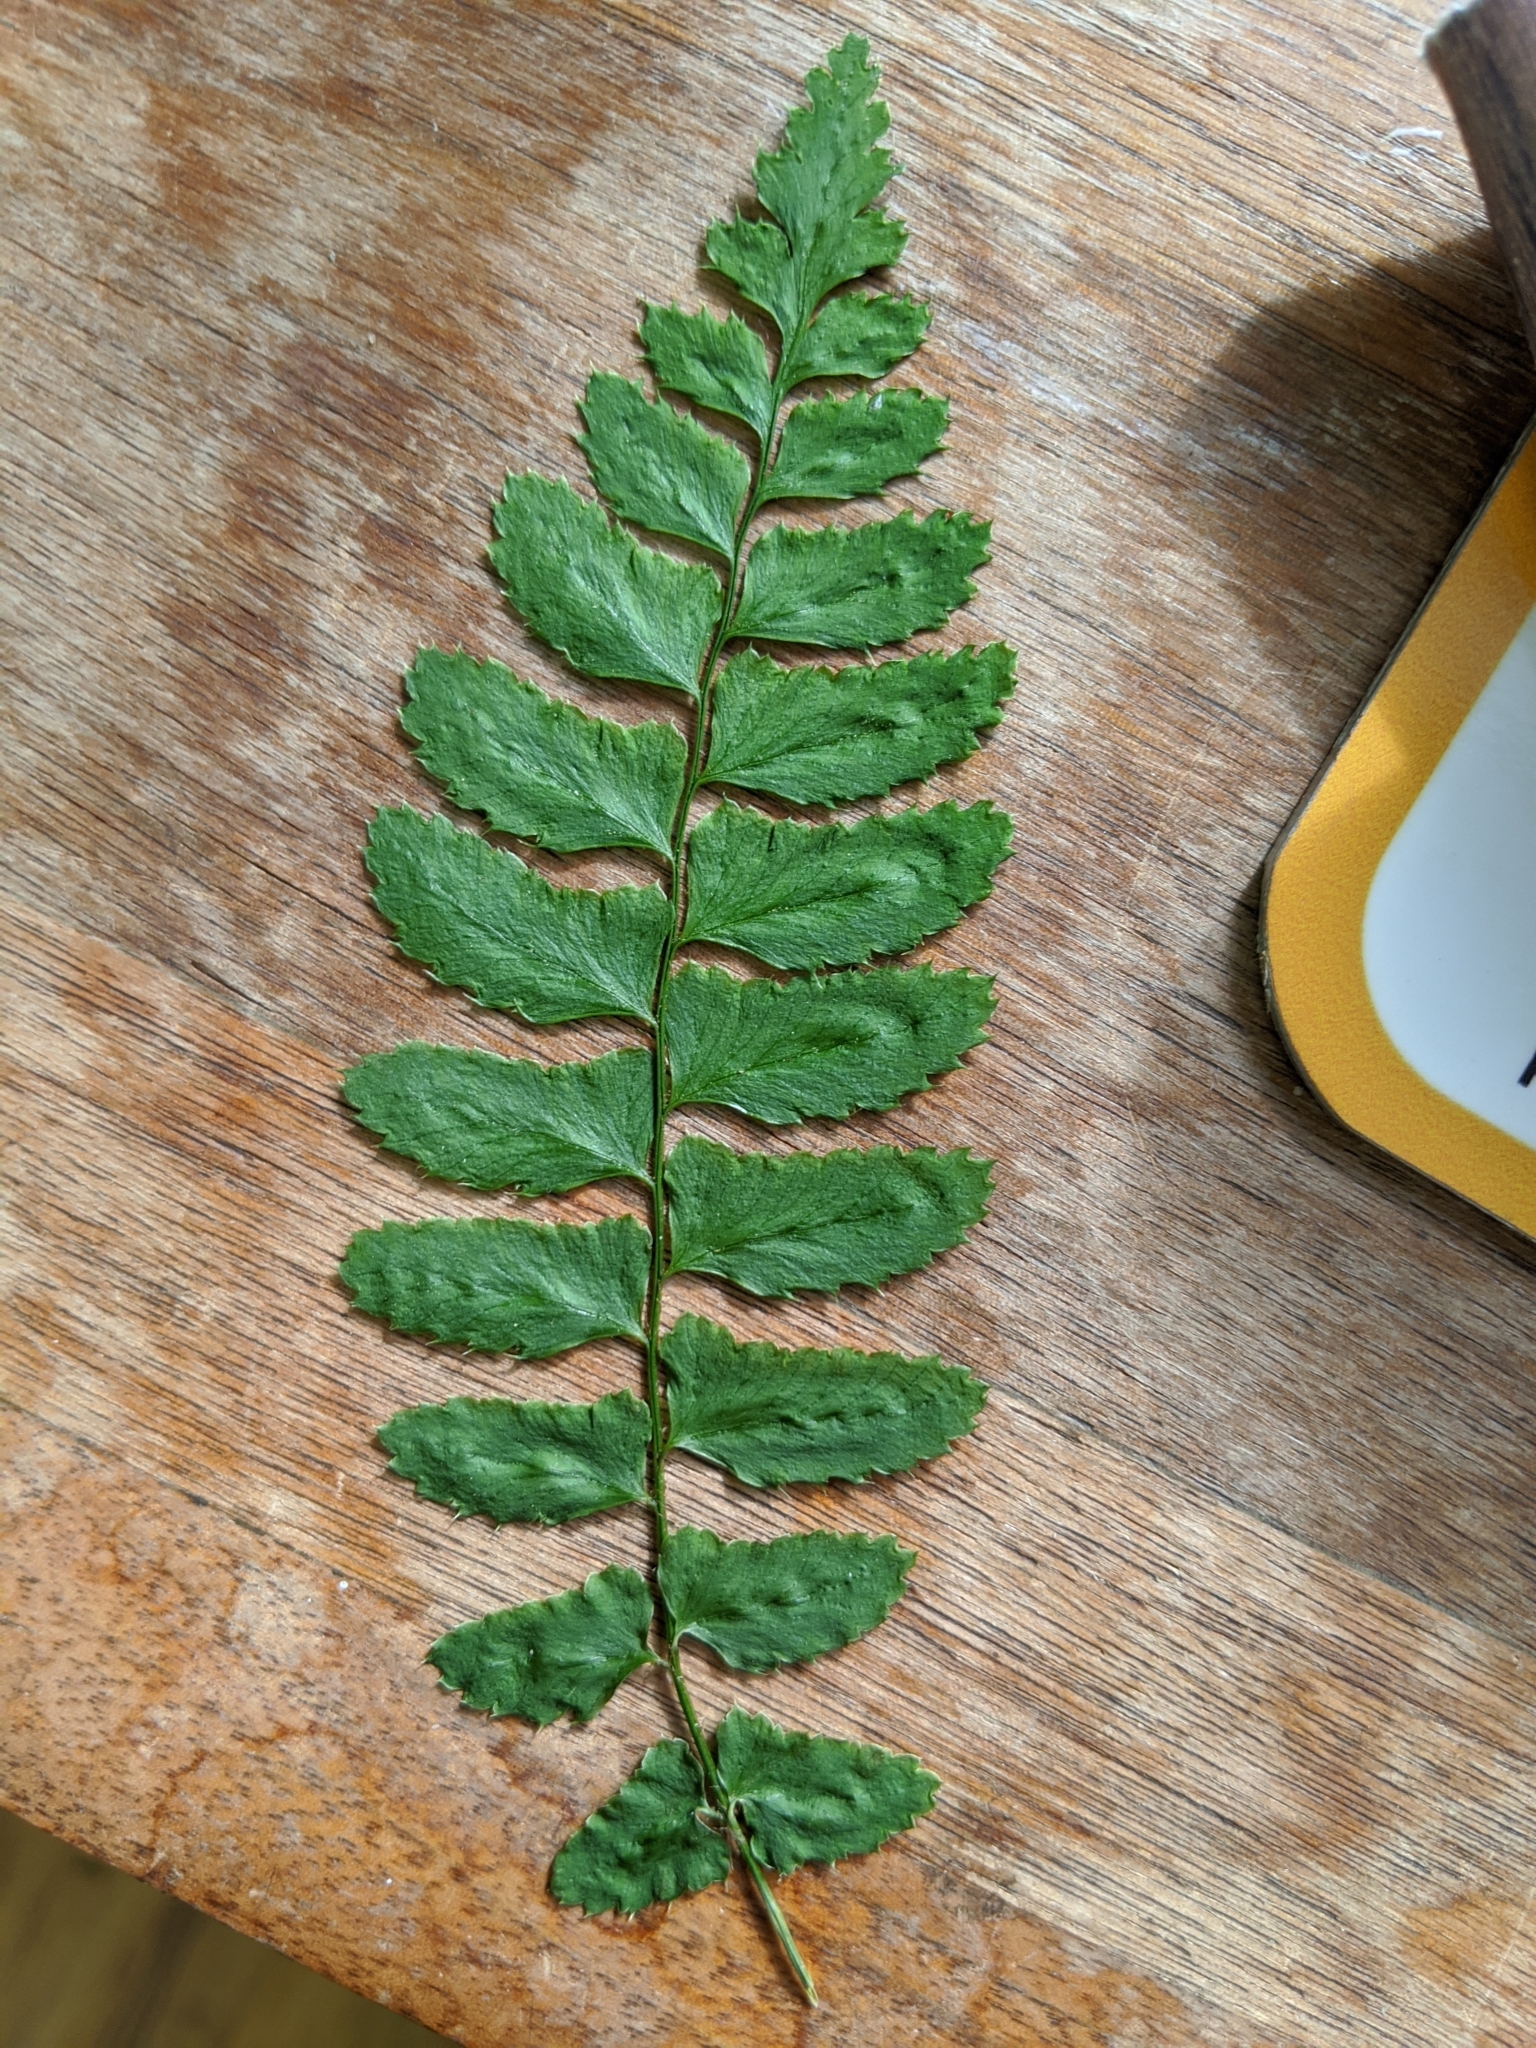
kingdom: Plantae
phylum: Tracheophyta
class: Polypodiopsida
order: Polypodiales
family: Dryopteridaceae
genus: Polystichum
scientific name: Polystichum munitum
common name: Western sword-fern
